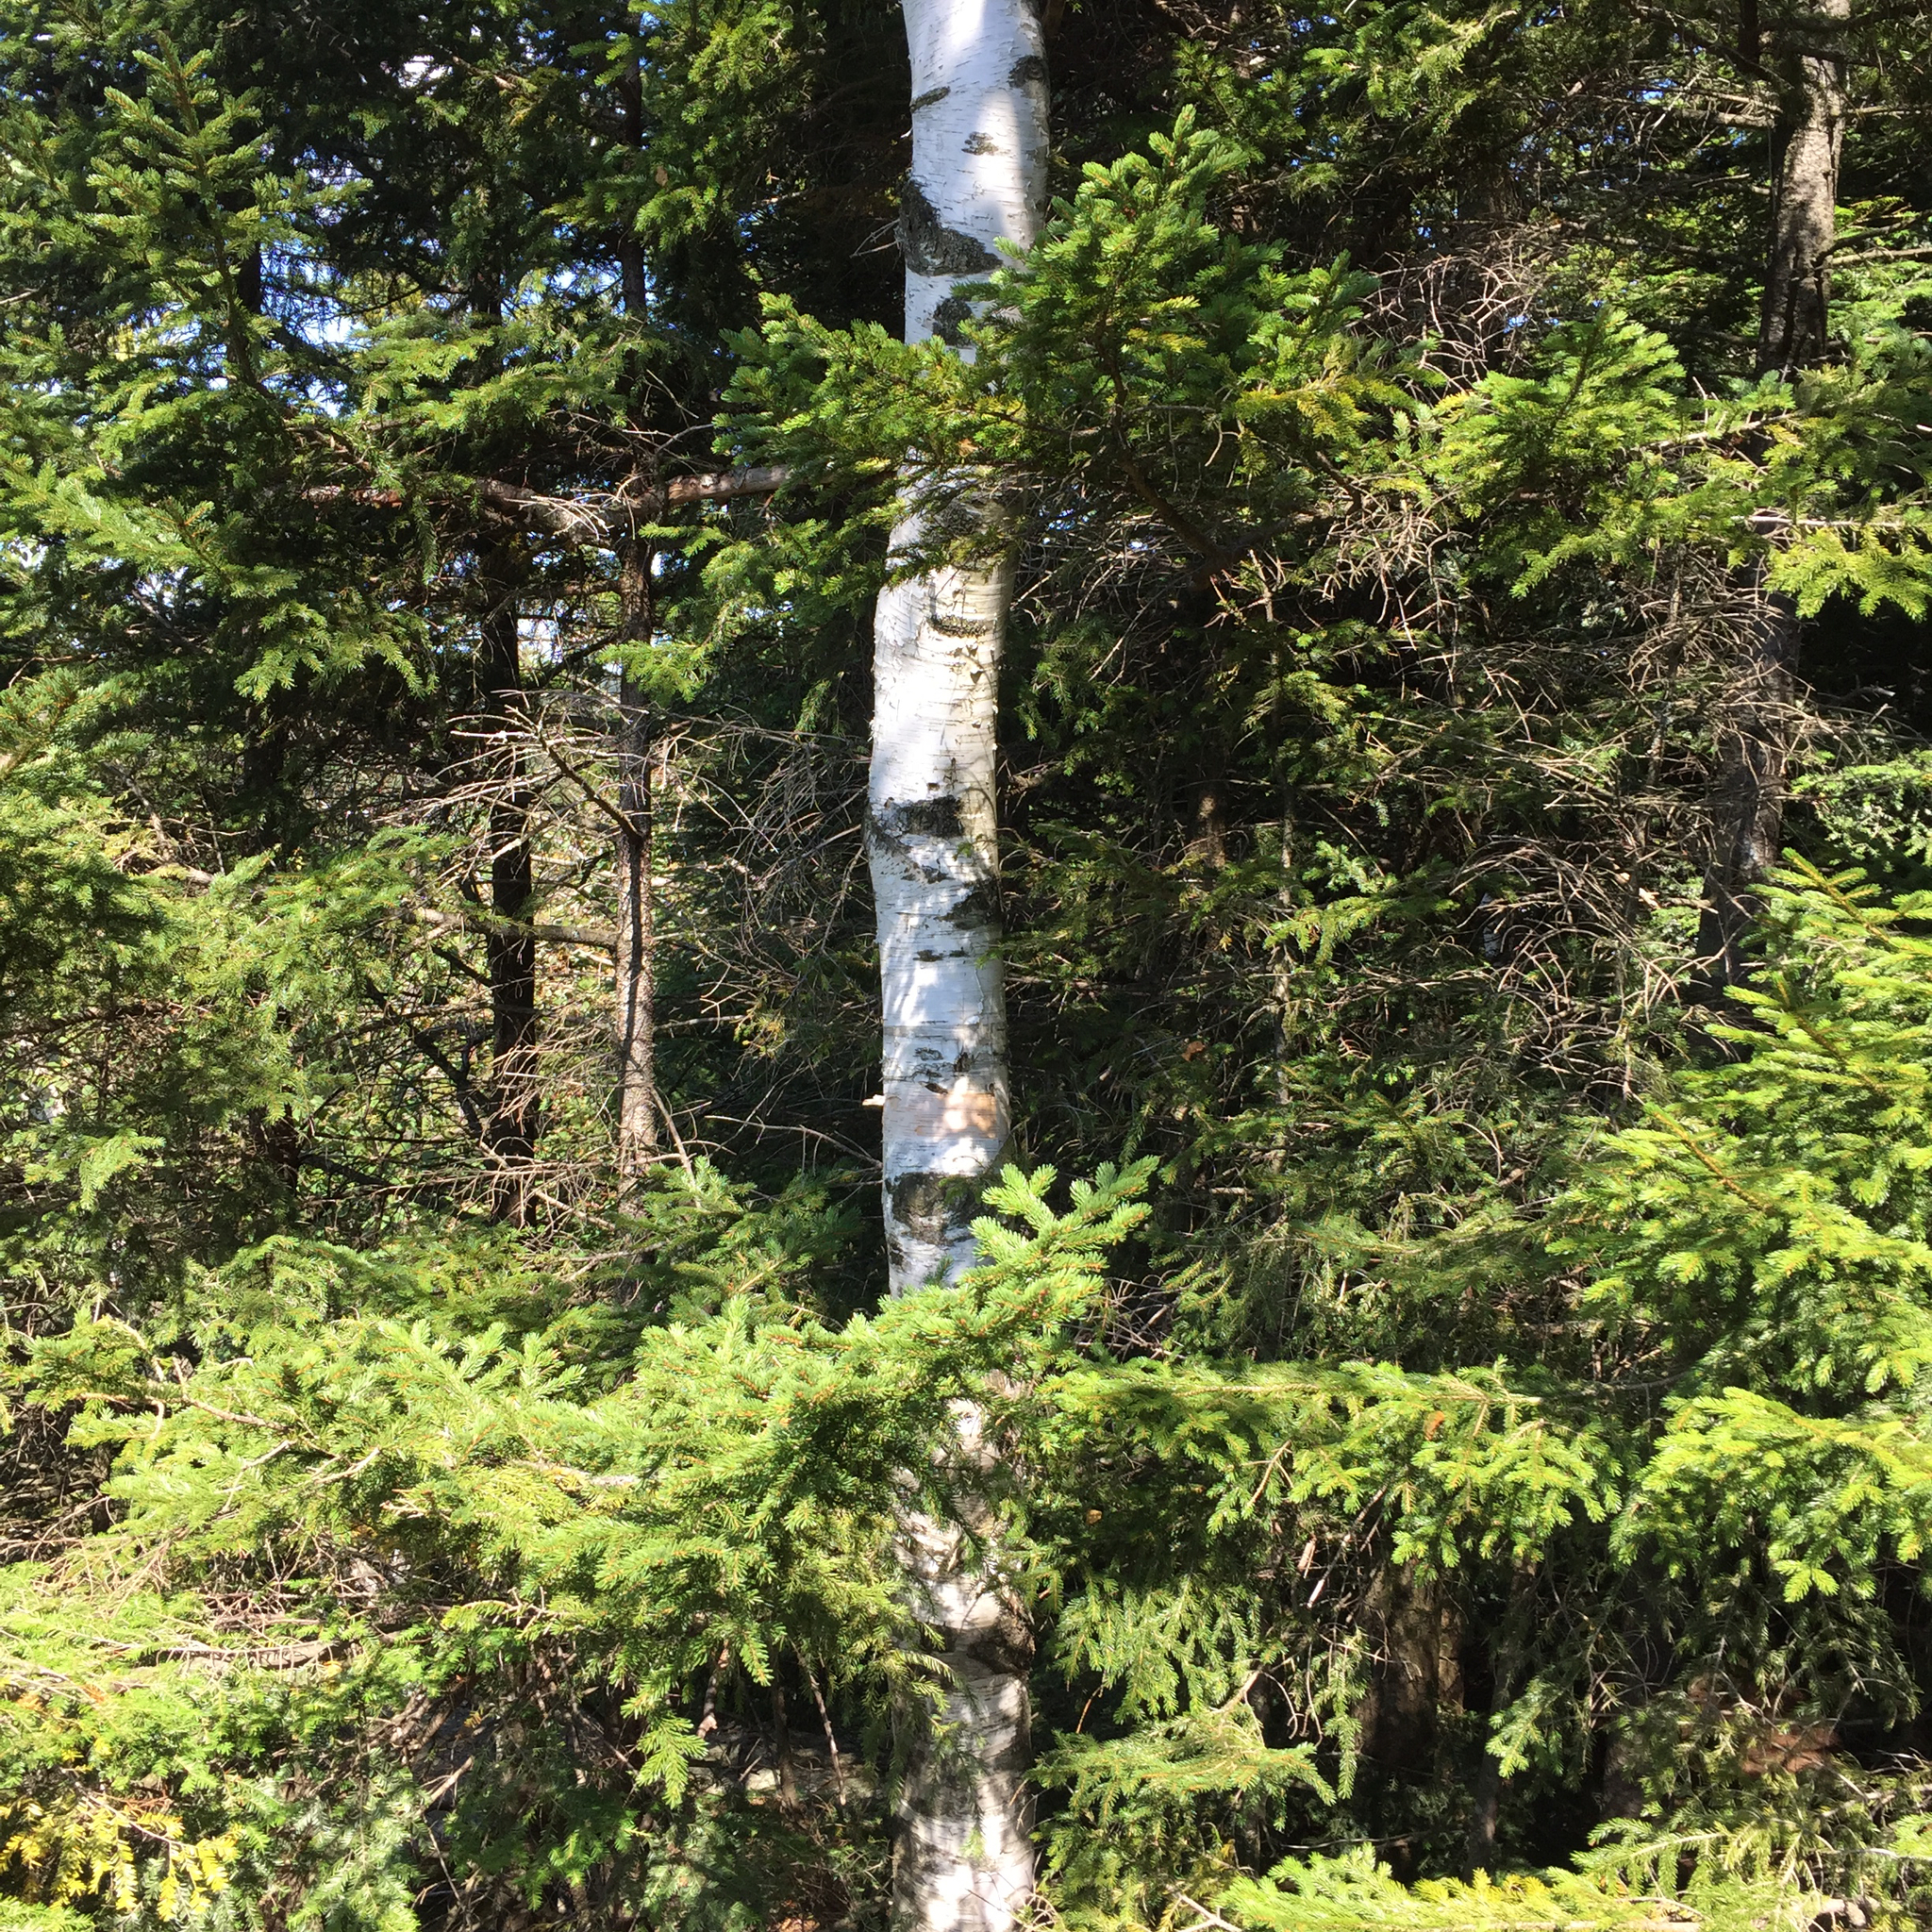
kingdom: Plantae
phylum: Tracheophyta
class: Magnoliopsida
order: Fagales
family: Betulaceae
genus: Betula
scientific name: Betula papyrifera
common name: Paper birch
